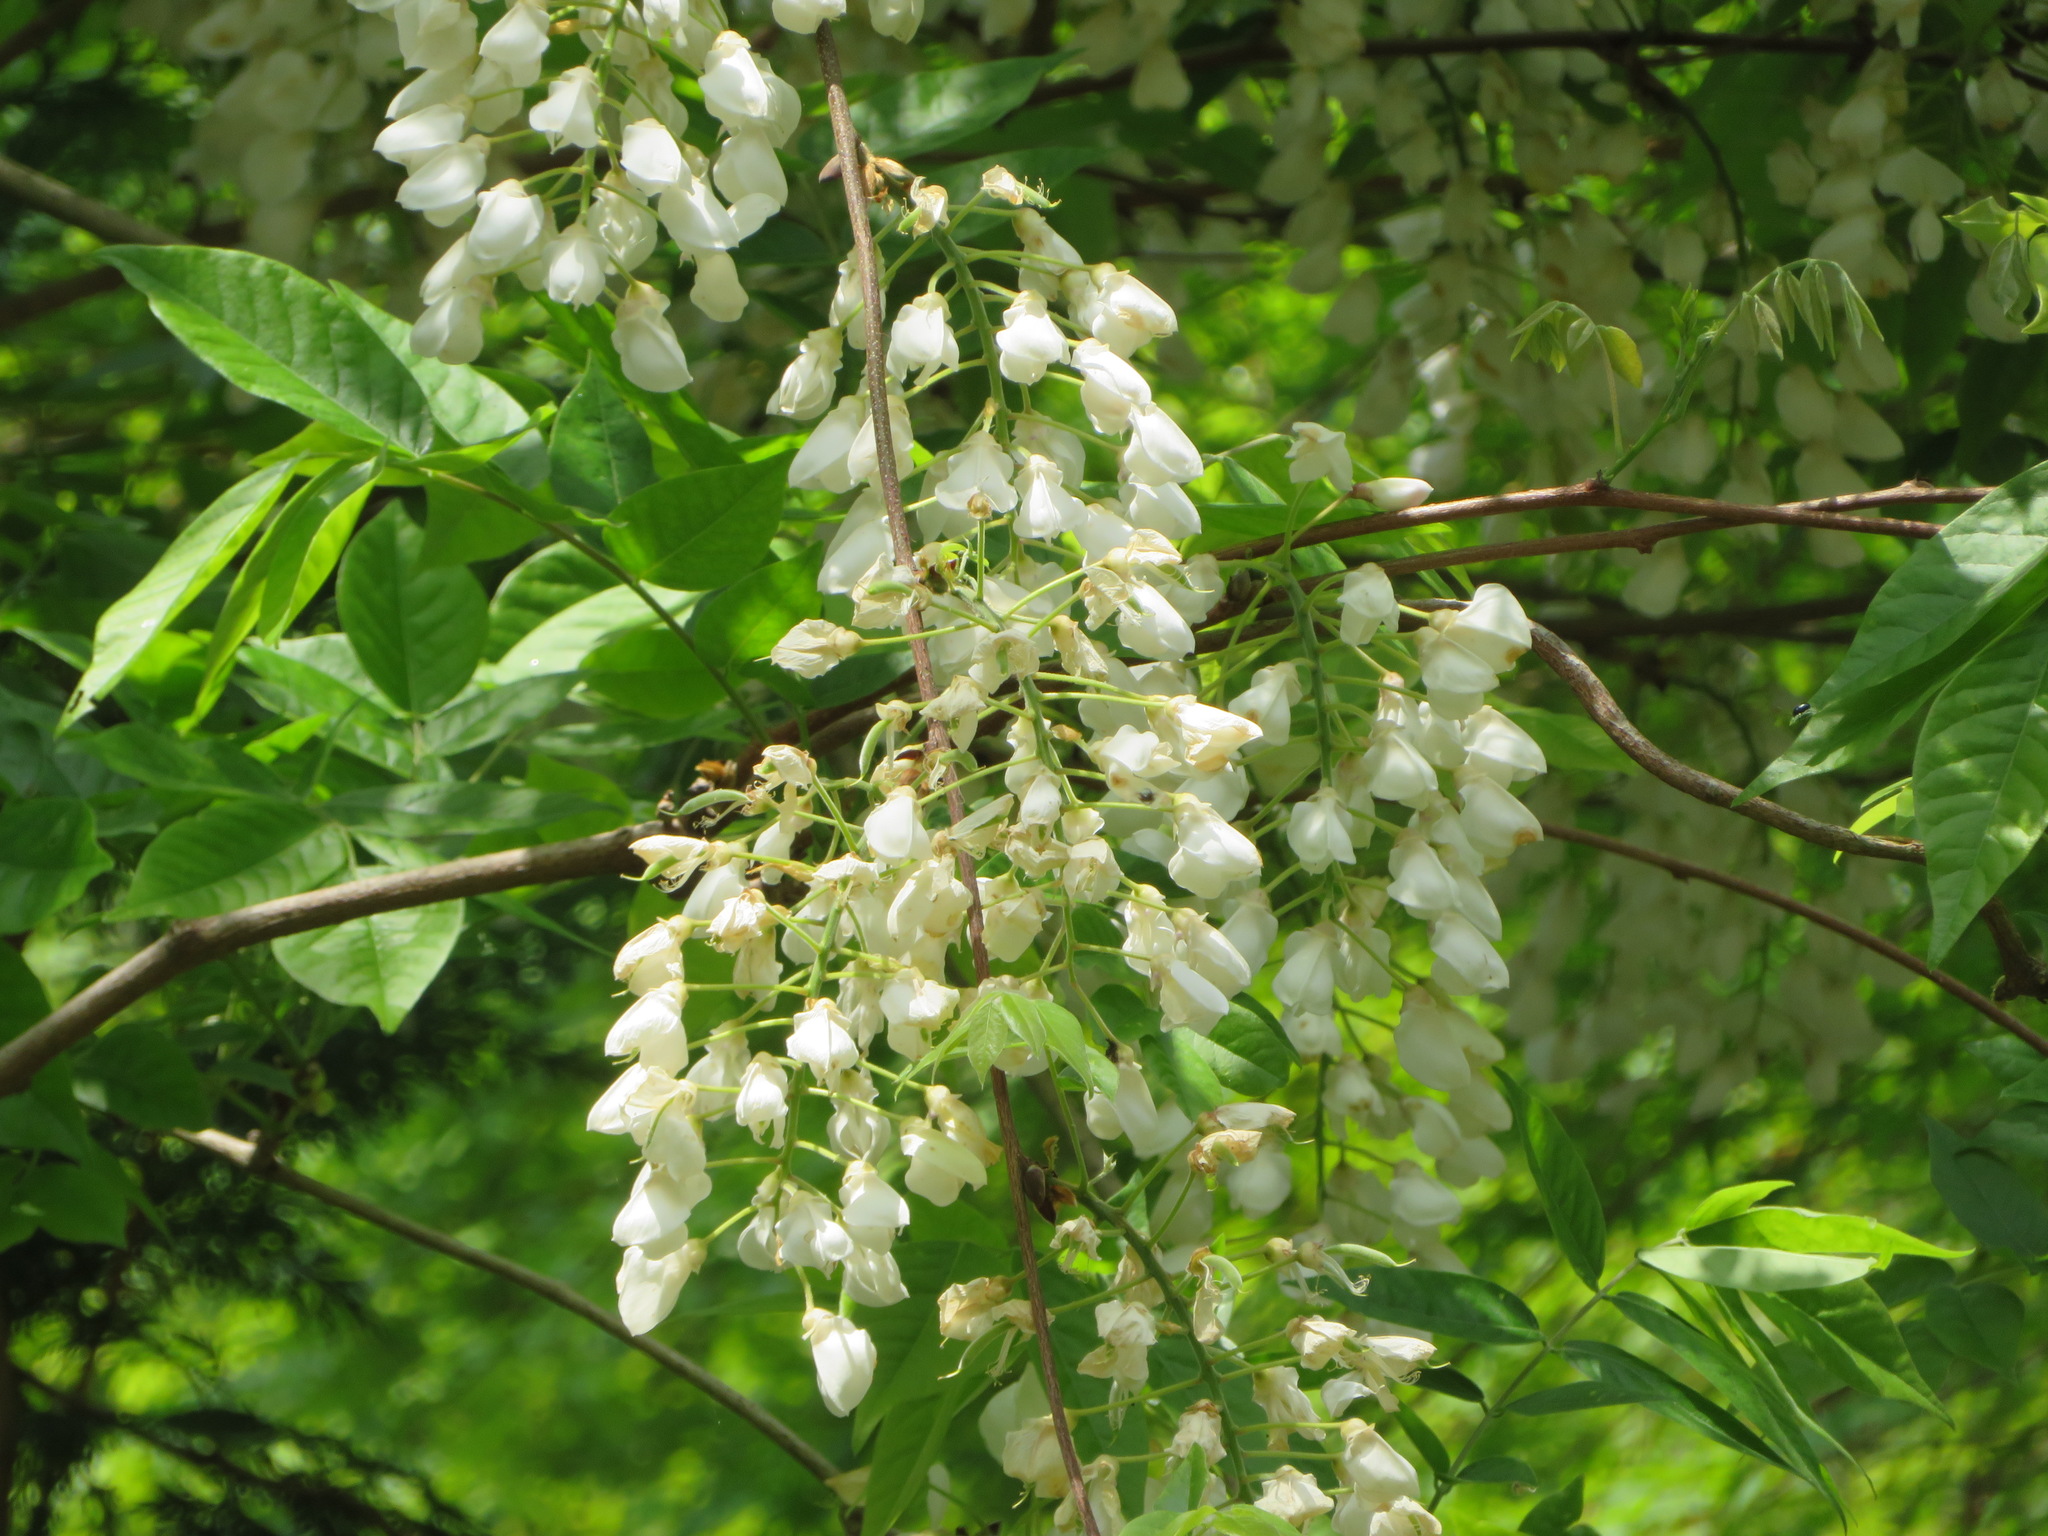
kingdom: Plantae
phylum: Tracheophyta
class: Magnoliopsida
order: Fabales
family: Fabaceae
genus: Wisteria
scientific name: Wisteria floribunda
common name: Japanese wisteria
